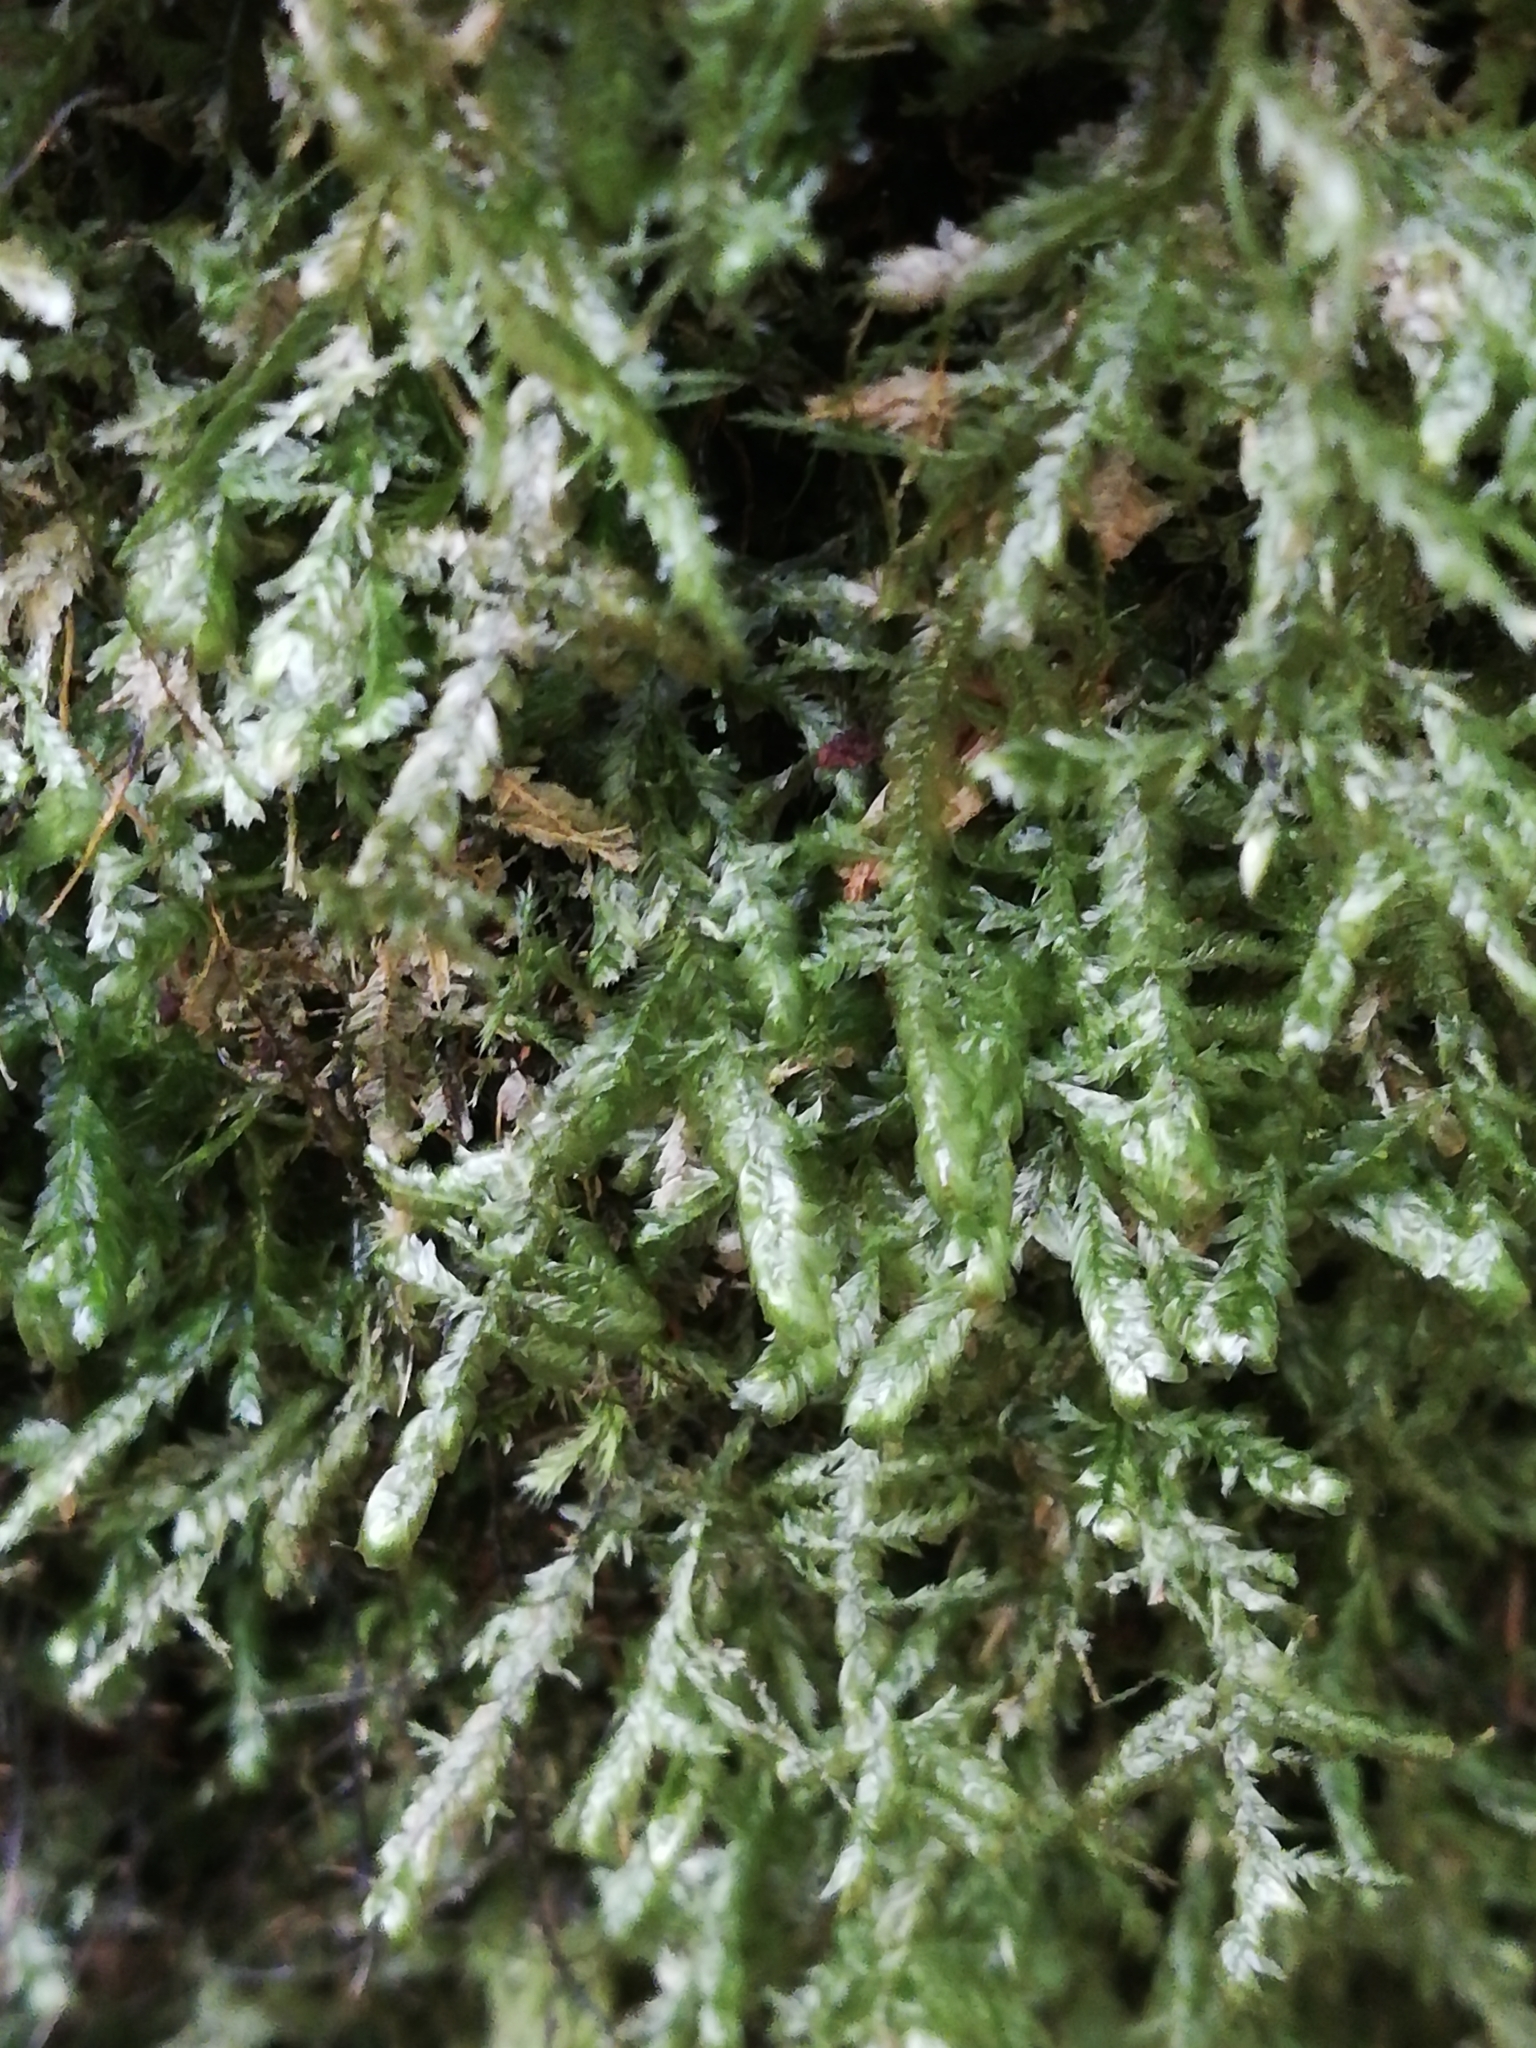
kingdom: Plantae
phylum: Bryophyta
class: Bryopsida
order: Hypnales
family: Neckeraceae
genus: Alleniella
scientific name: Alleniella complanata
